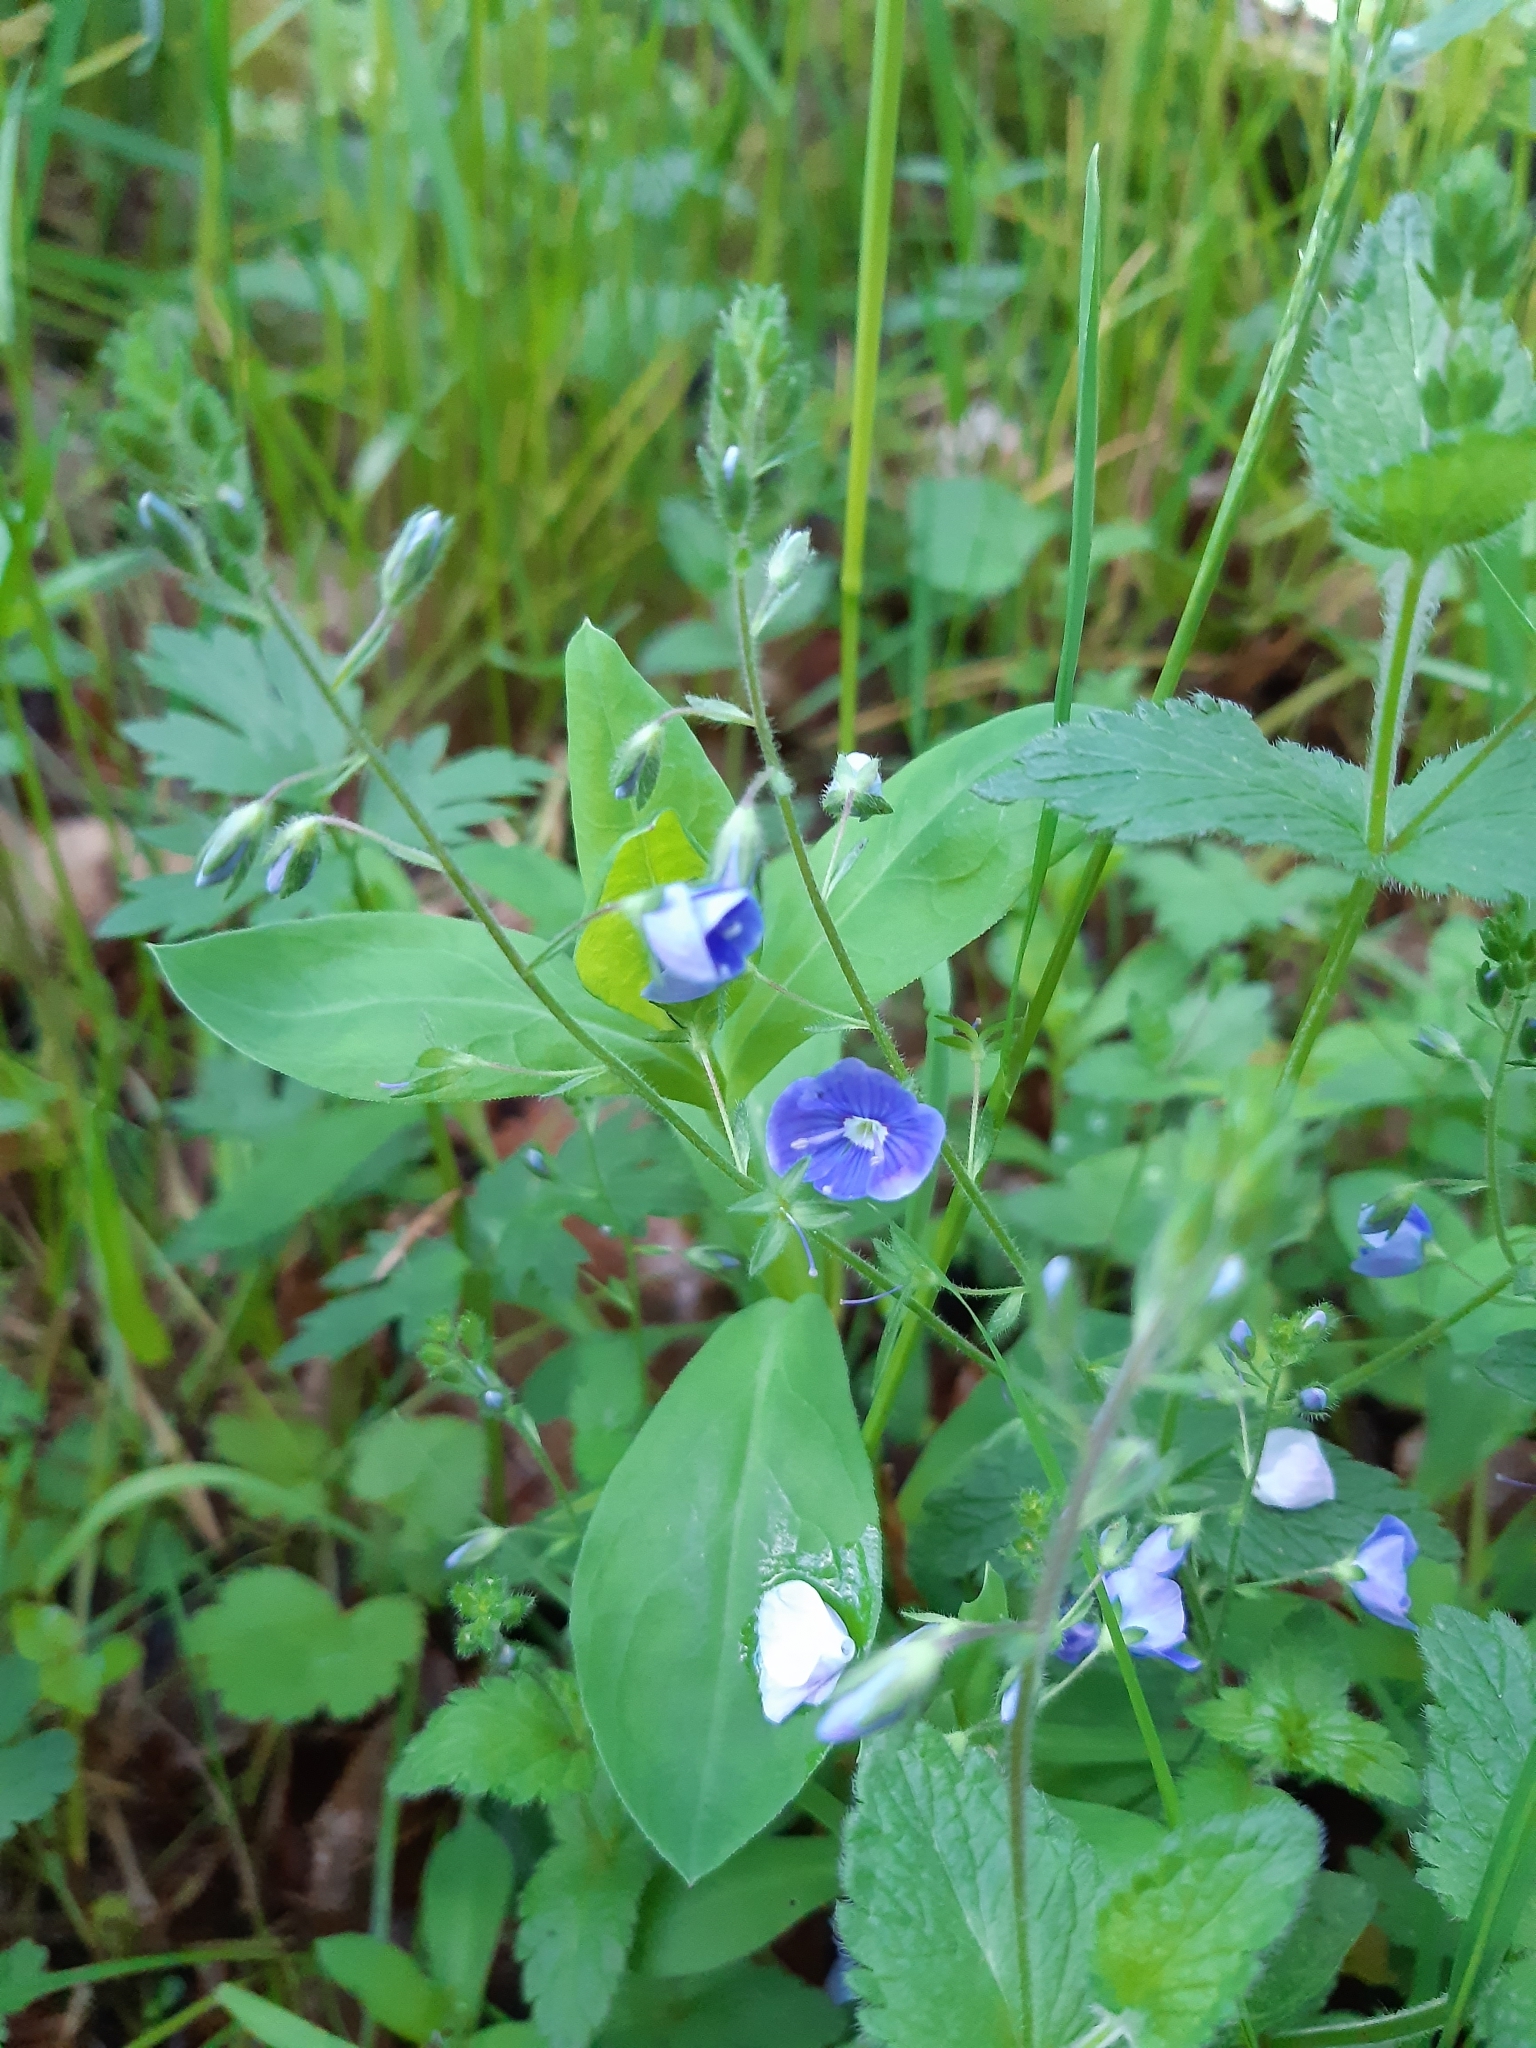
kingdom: Plantae
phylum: Tracheophyta
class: Magnoliopsida
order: Lamiales
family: Plantaginaceae
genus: Veronica
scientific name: Veronica chamaedrys
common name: Germander speedwell
